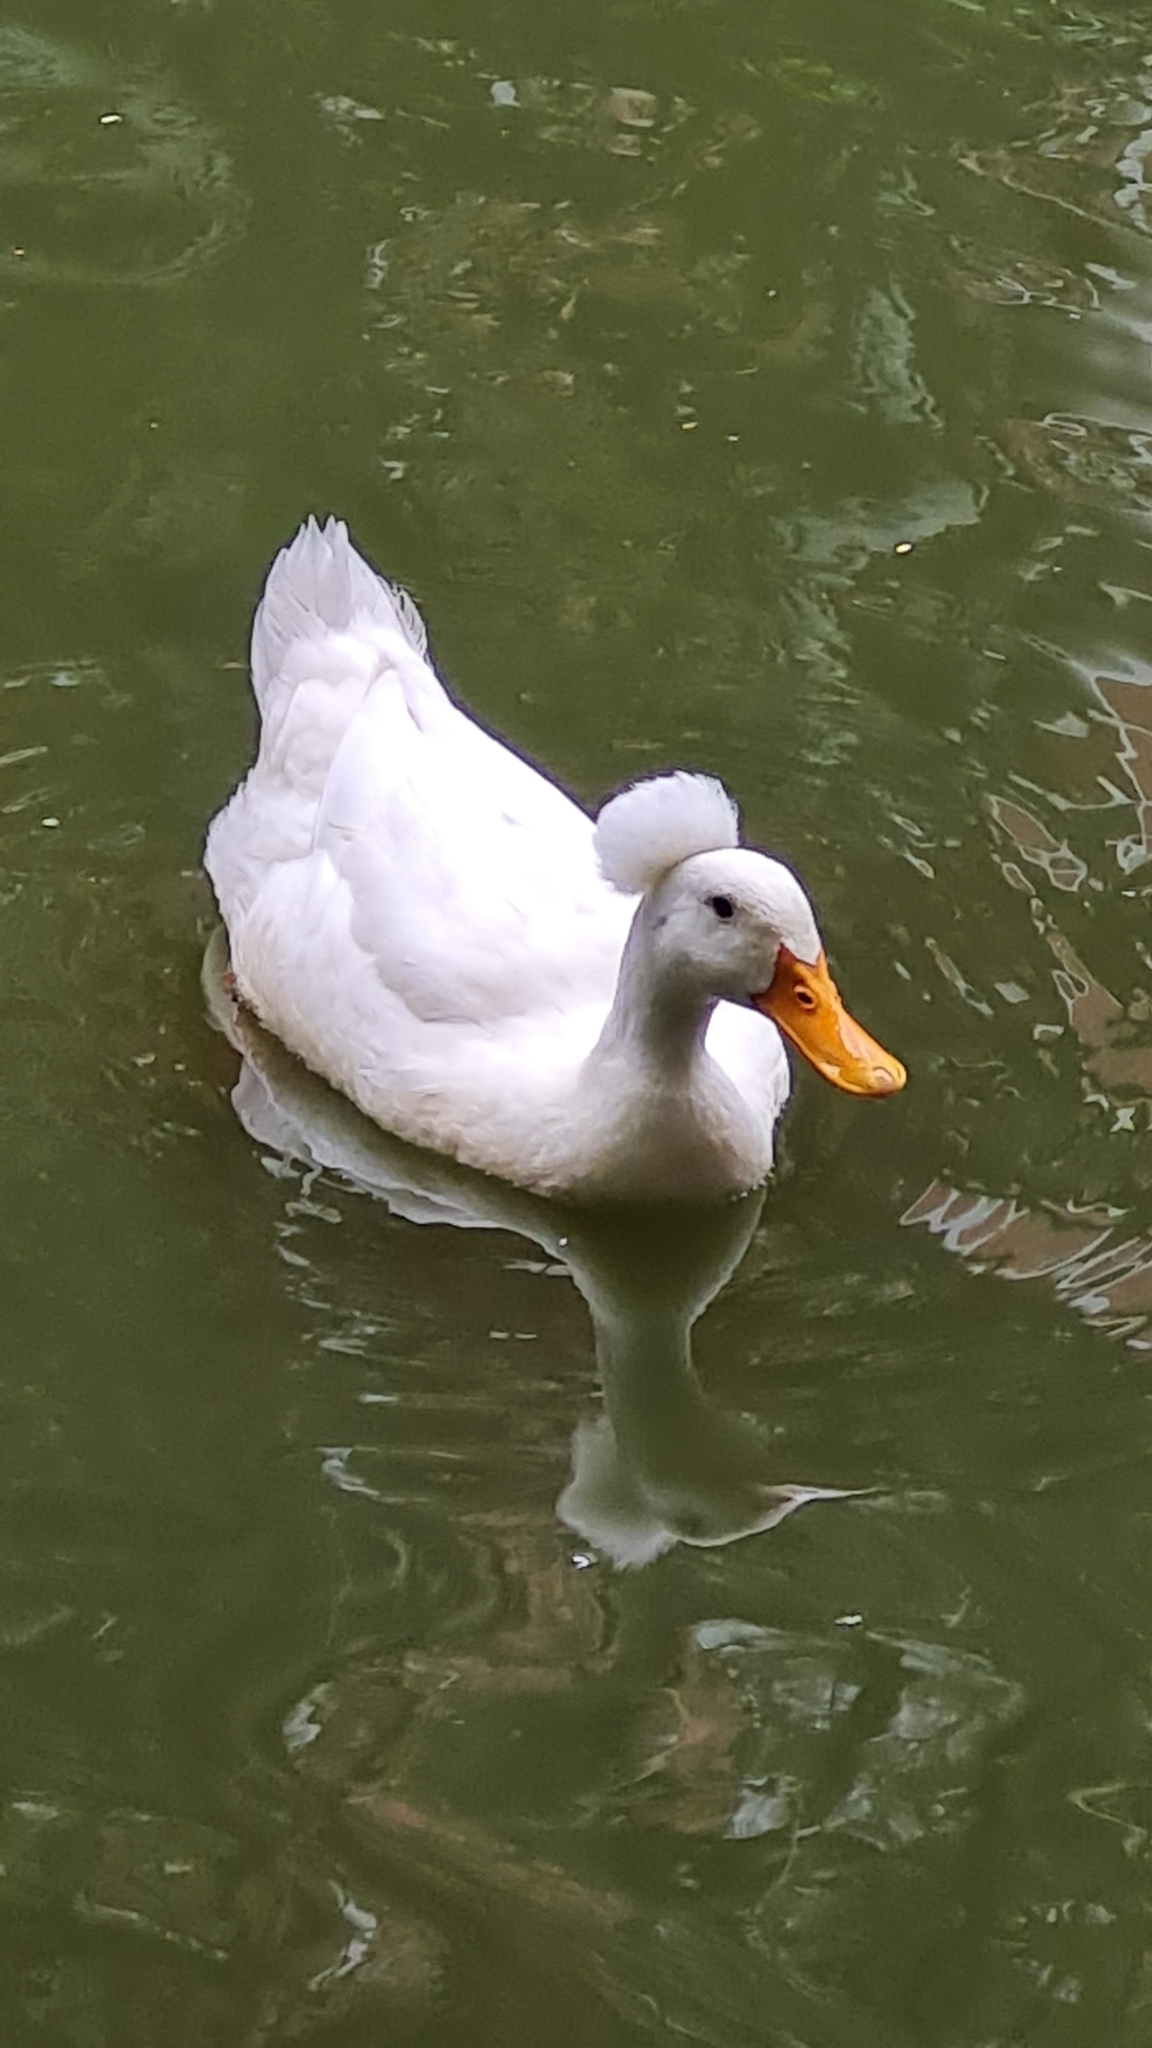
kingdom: Animalia
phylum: Chordata
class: Aves
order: Anseriformes
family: Anatidae
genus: Anas
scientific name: Anas platyrhynchos
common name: Mallard
